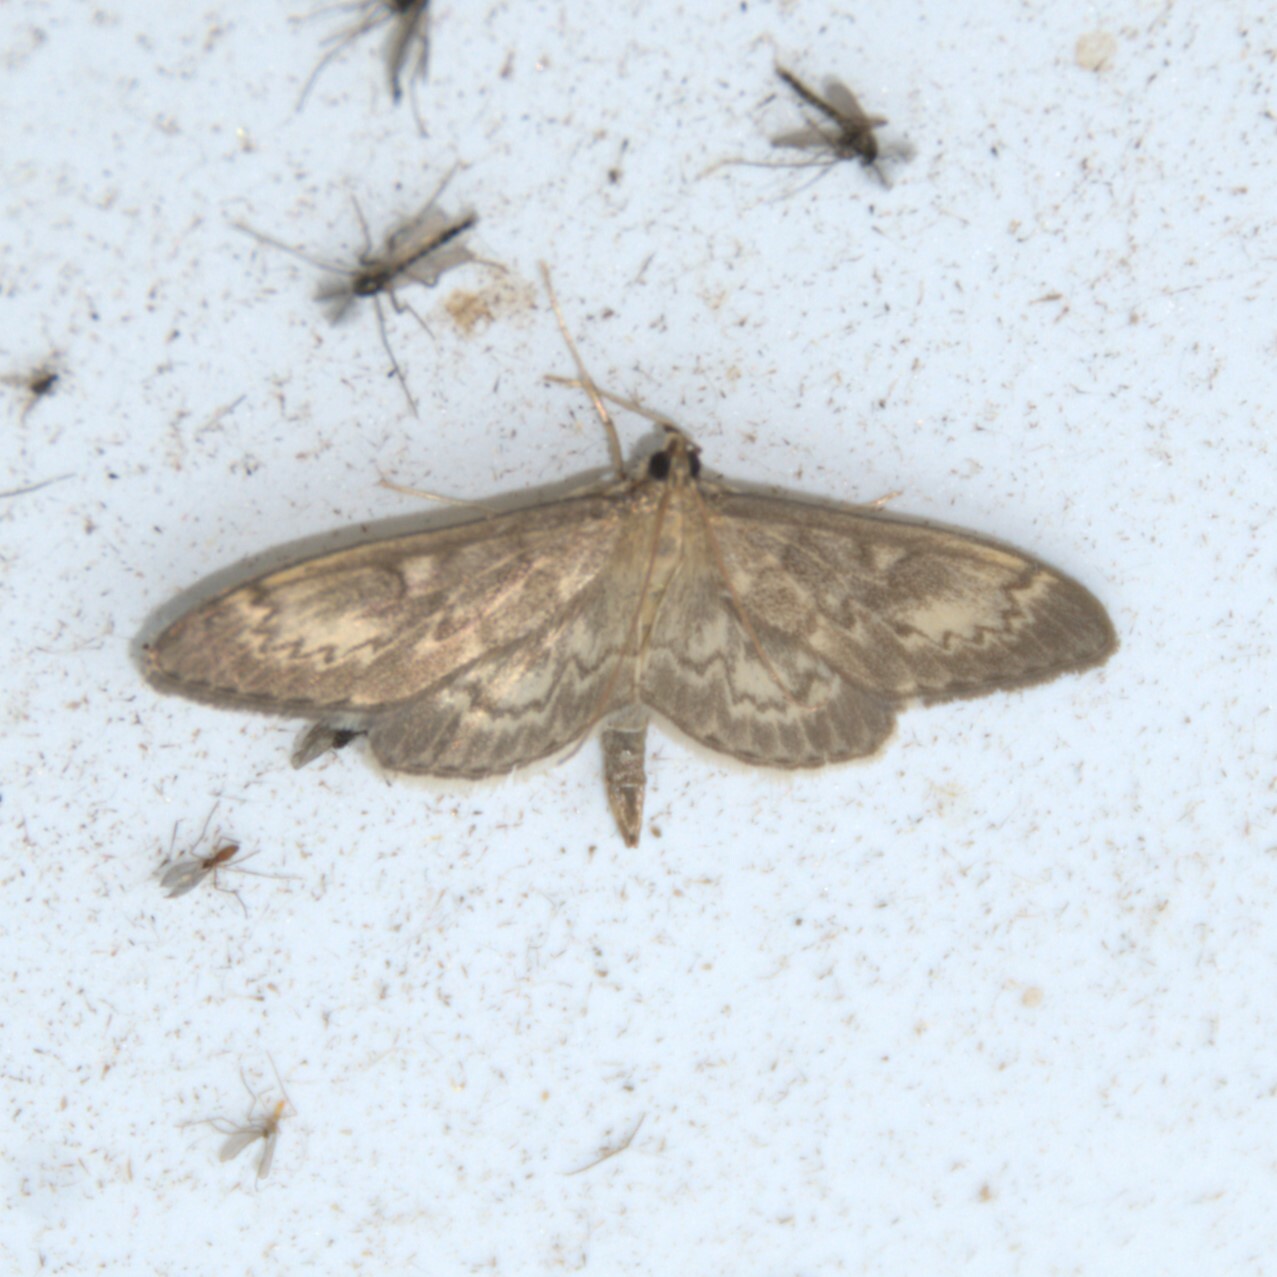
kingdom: Animalia
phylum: Arthropoda
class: Insecta
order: Lepidoptera
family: Crambidae
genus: Anania
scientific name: Anania lancealis
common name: Long-winged pearl
